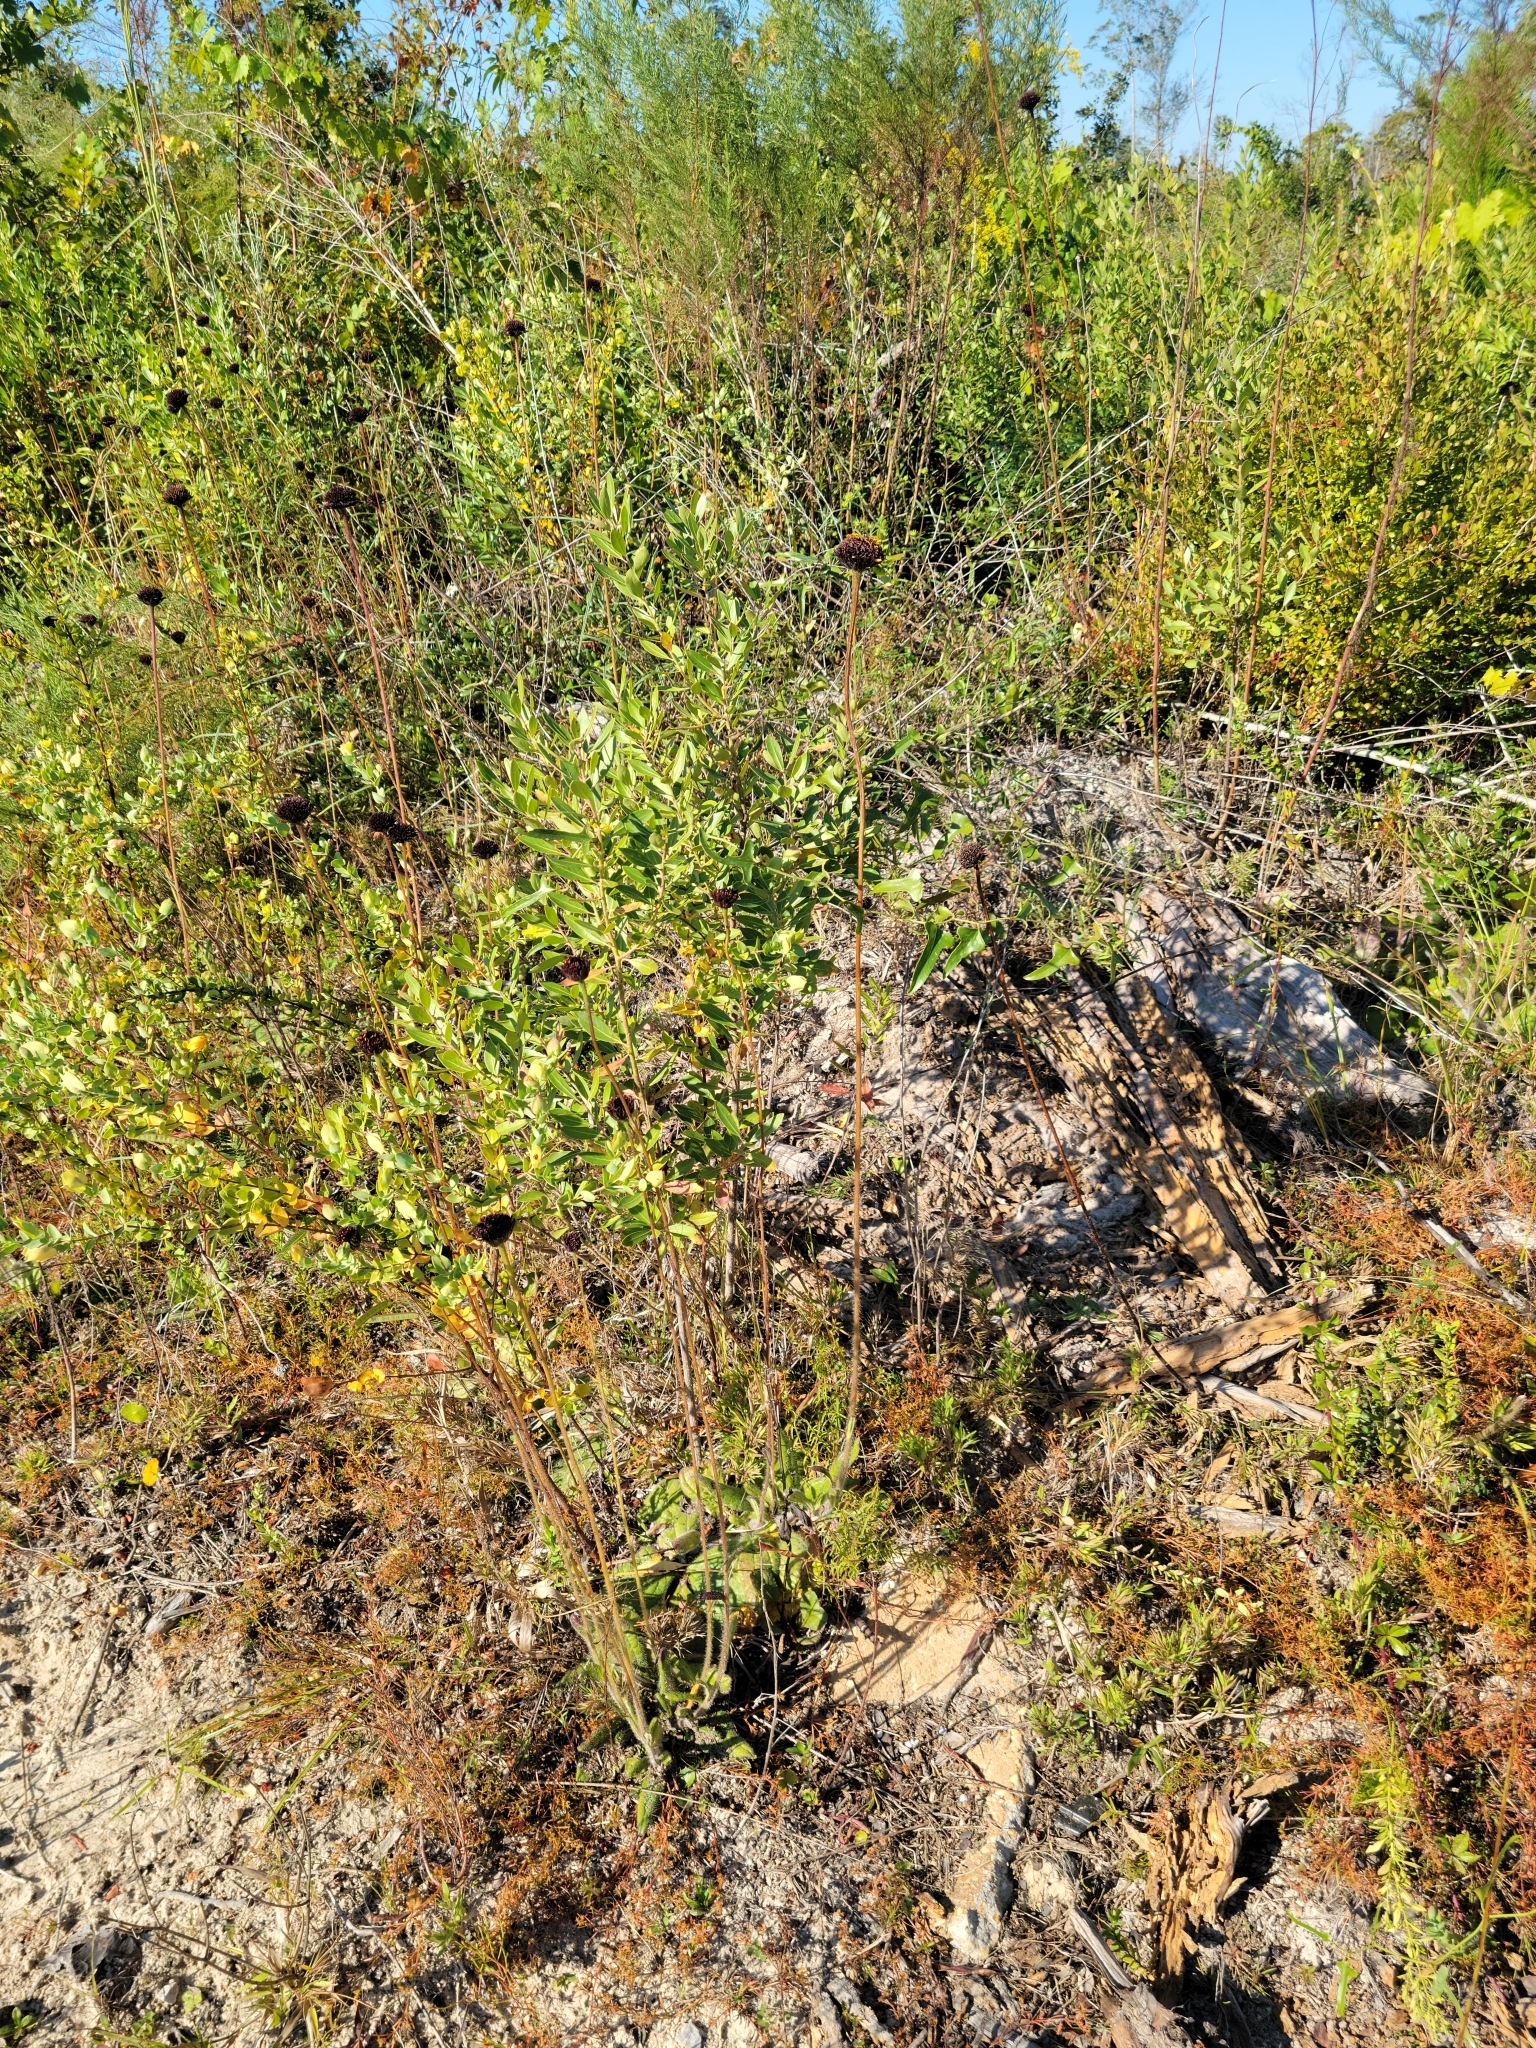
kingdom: Plantae
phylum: Tracheophyta
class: Magnoliopsida
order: Asterales
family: Asteraceae
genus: Helianthus
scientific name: Helianthus radula
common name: Pineland sunflower
